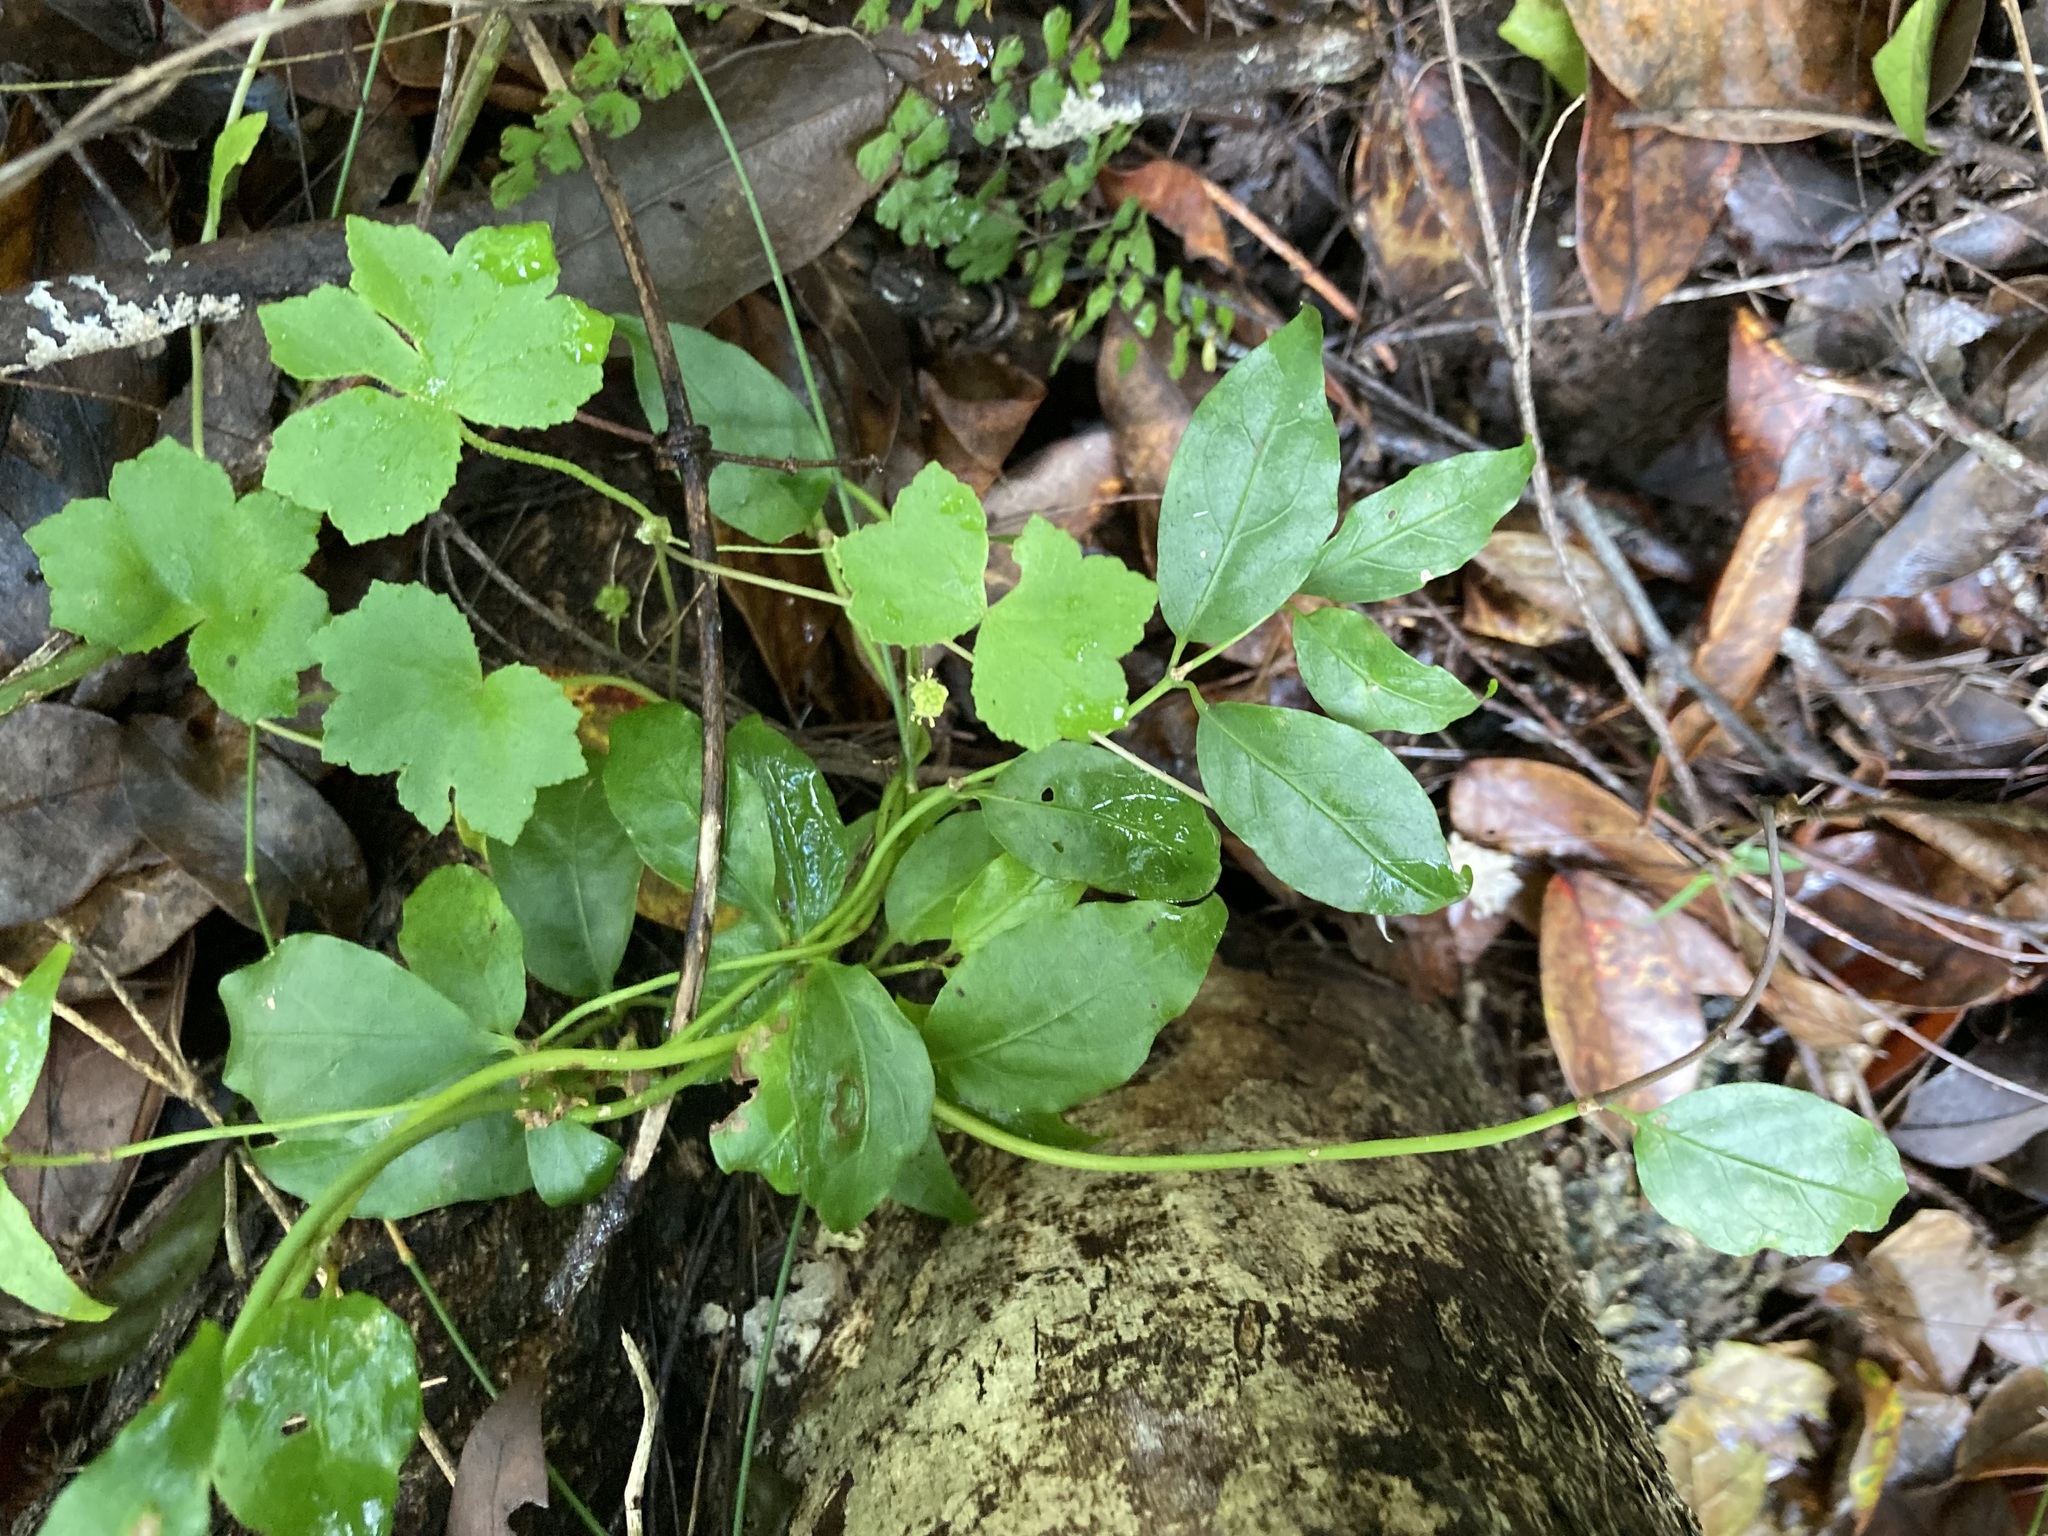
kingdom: Plantae
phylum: Tracheophyta
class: Magnoliopsida
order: Gentianales
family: Rubiaceae
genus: Gynochthodes
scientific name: Gynochthodes jasminoides
